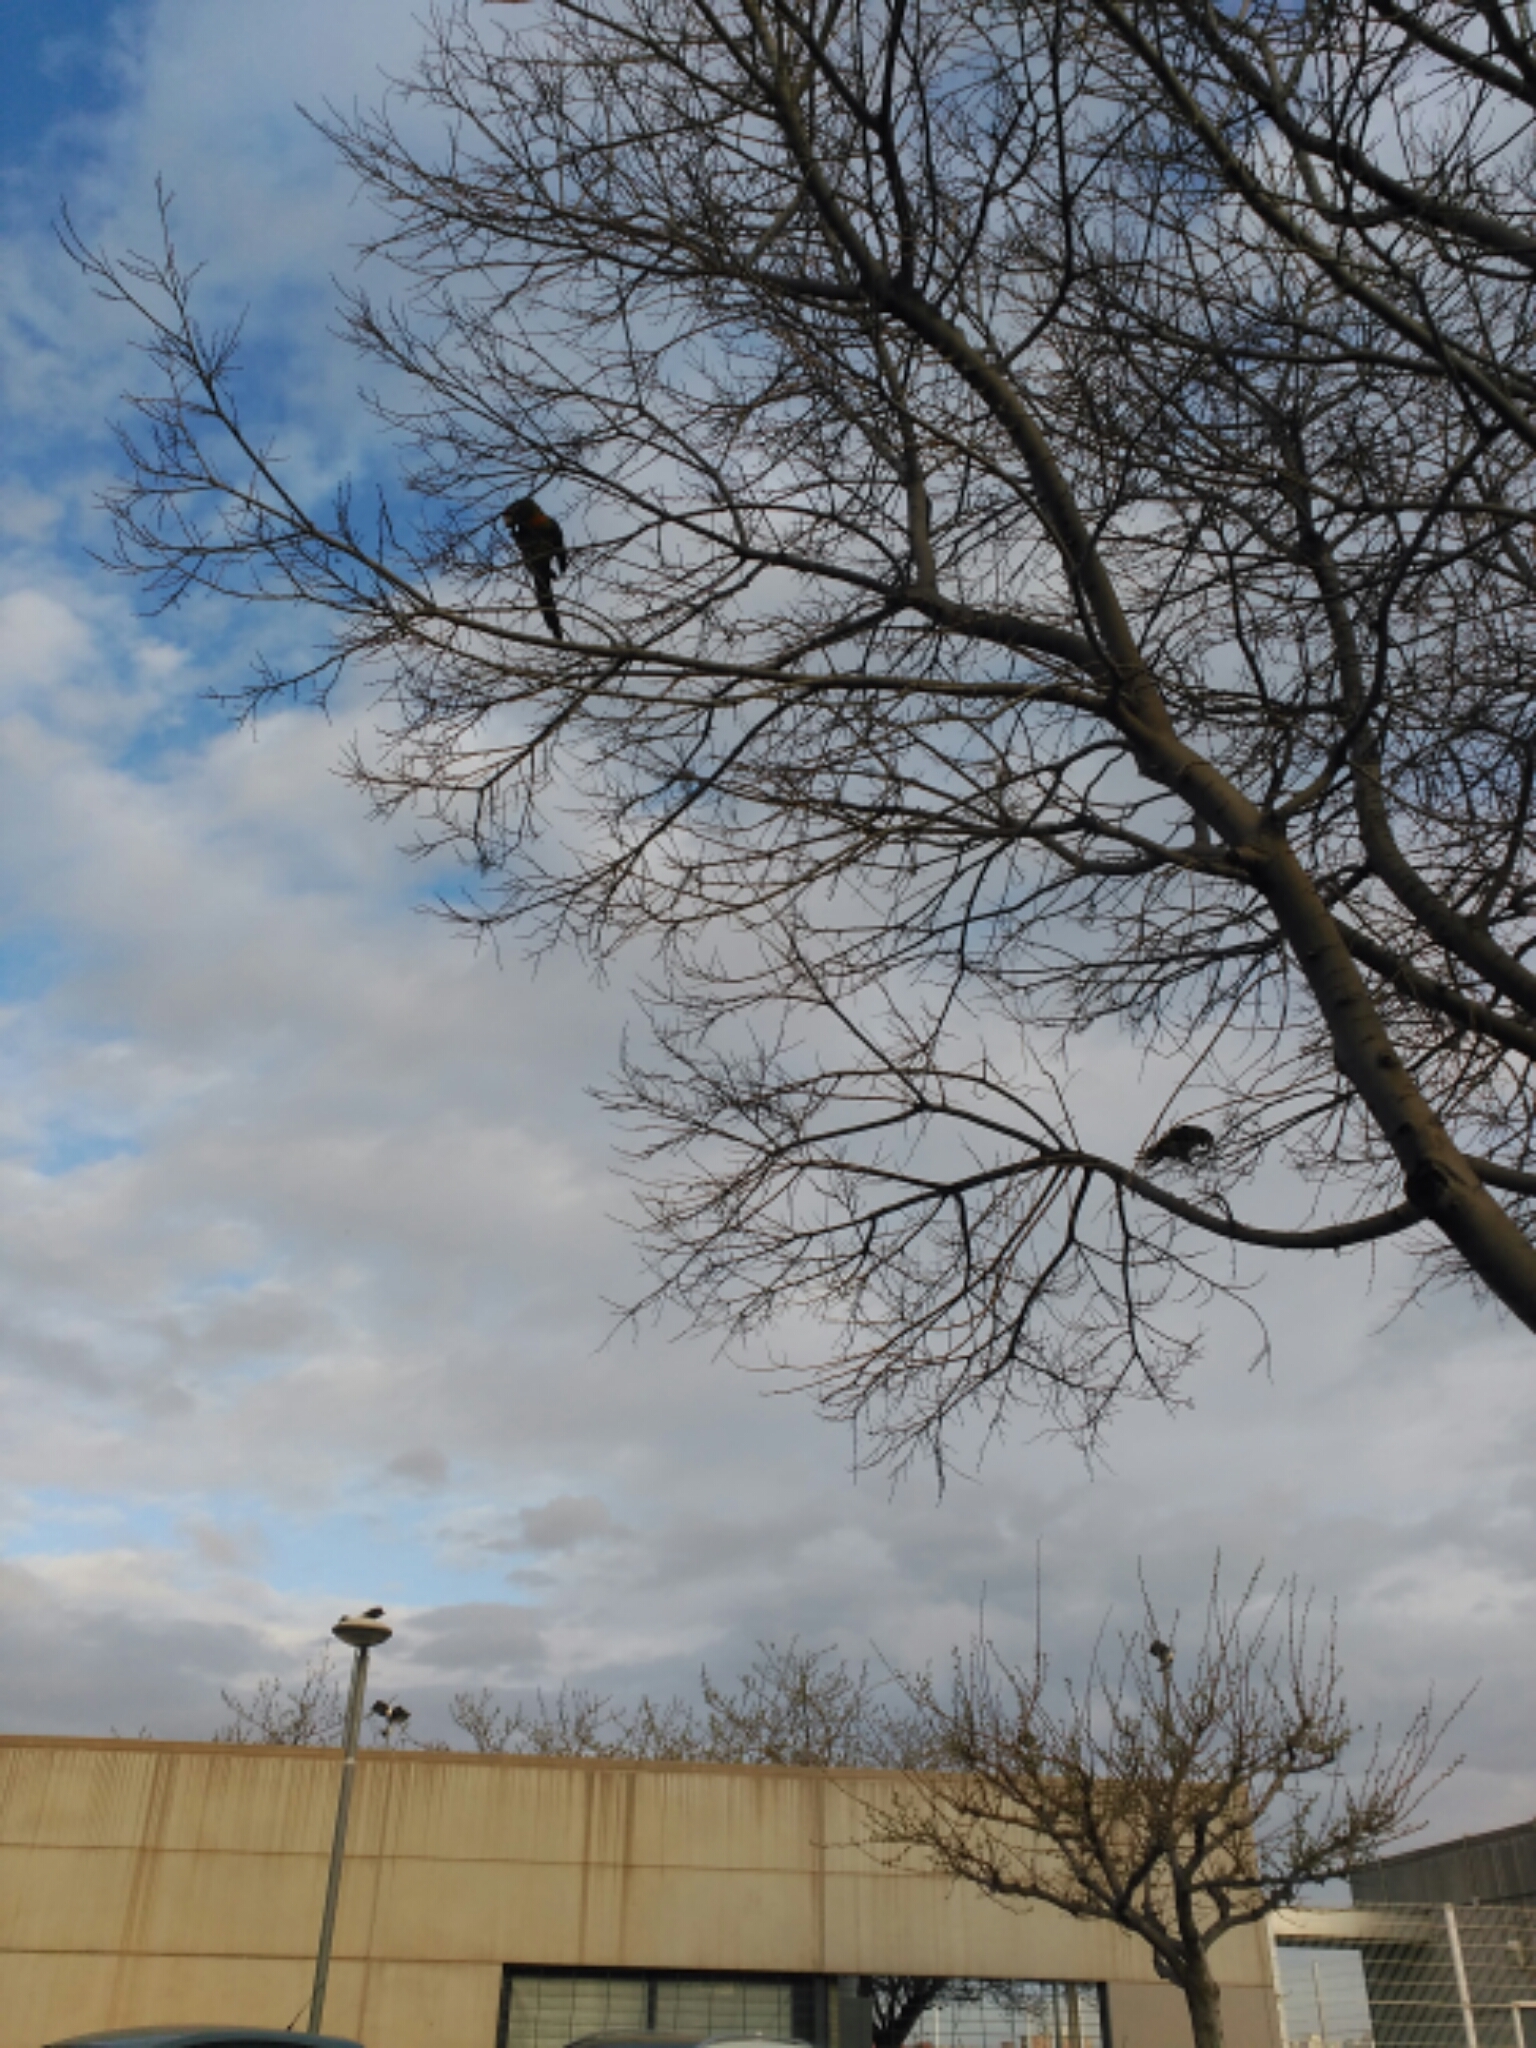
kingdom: Animalia
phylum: Chordata
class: Aves
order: Psittaciformes
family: Psittacidae
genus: Aratinga
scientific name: Aratinga mitrata
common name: Mitred parakeet
